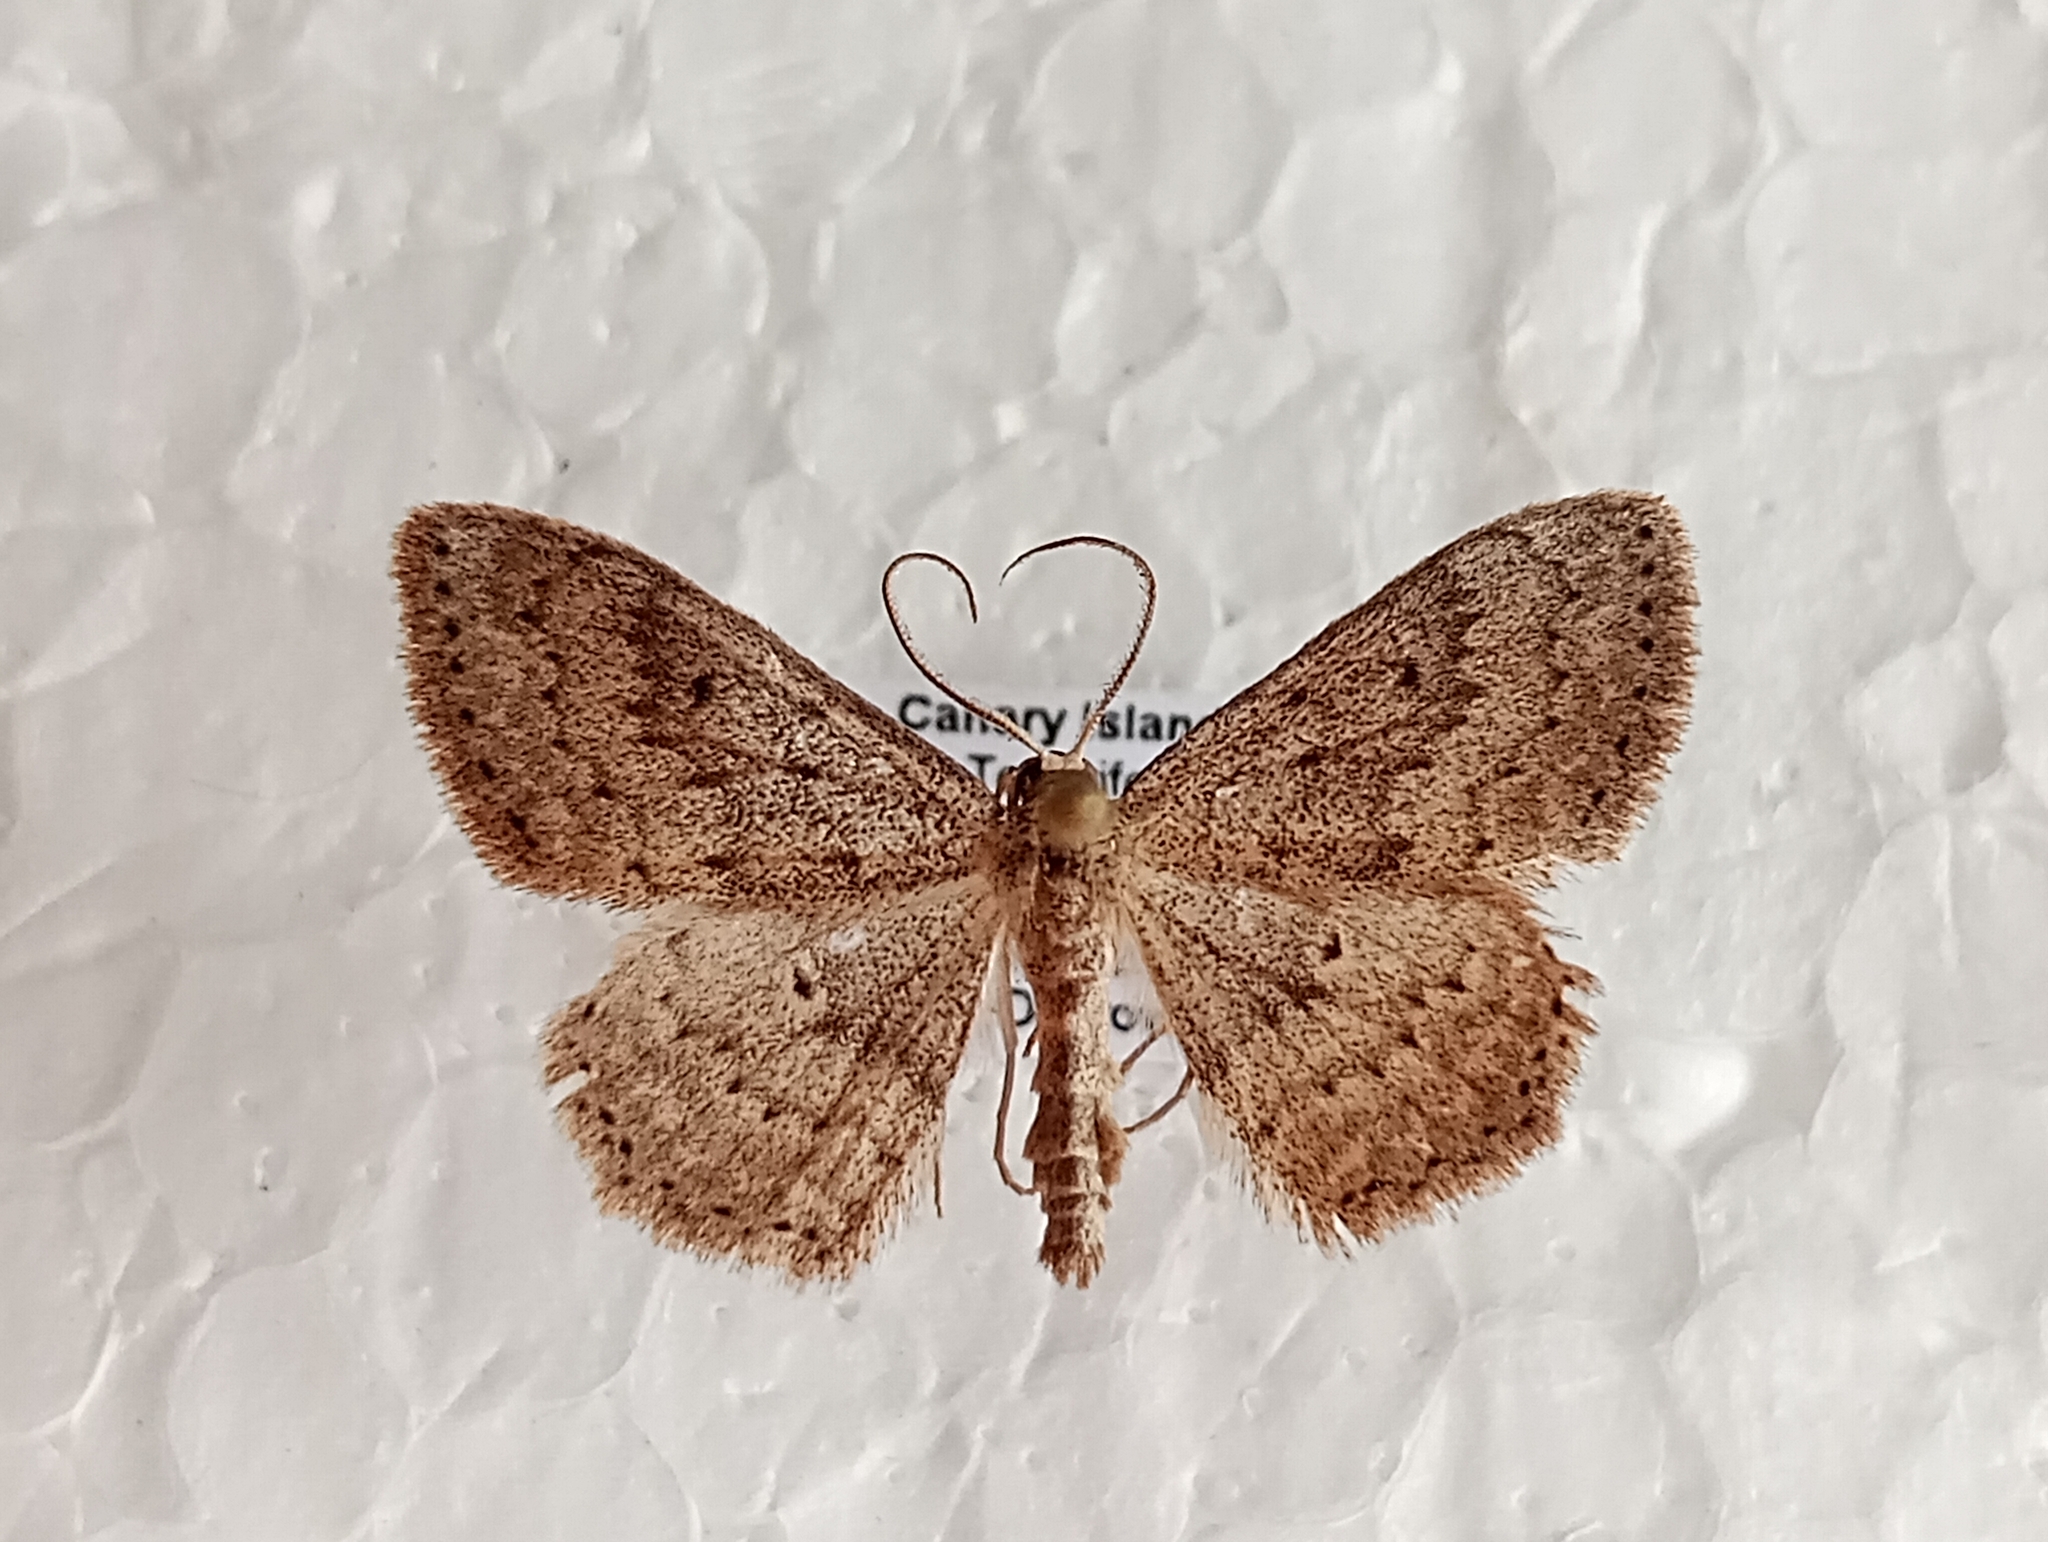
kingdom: Animalia
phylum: Arthropoda
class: Insecta
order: Lepidoptera
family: Geometridae
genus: Scopula
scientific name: Scopula guancharia
